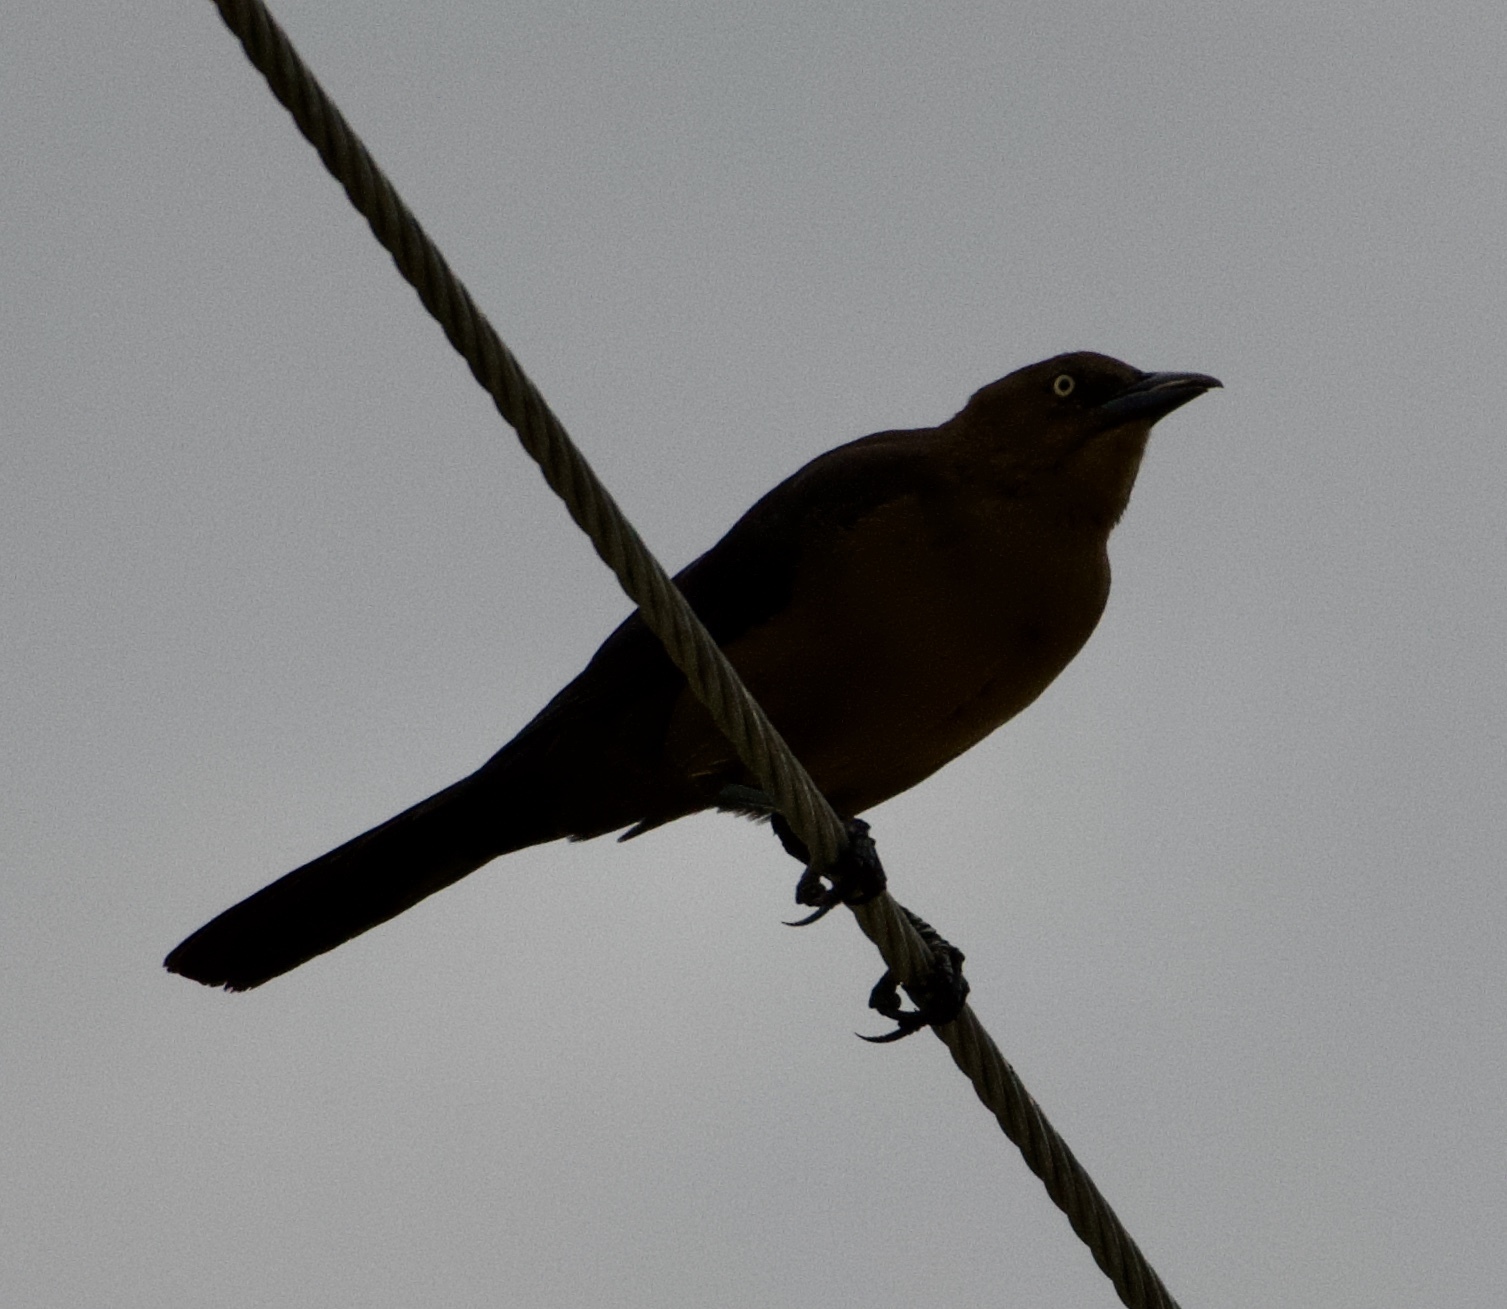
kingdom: Animalia
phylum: Chordata
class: Aves
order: Passeriformes
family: Icteridae
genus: Quiscalus
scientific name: Quiscalus mexicanus
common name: Great-tailed grackle
